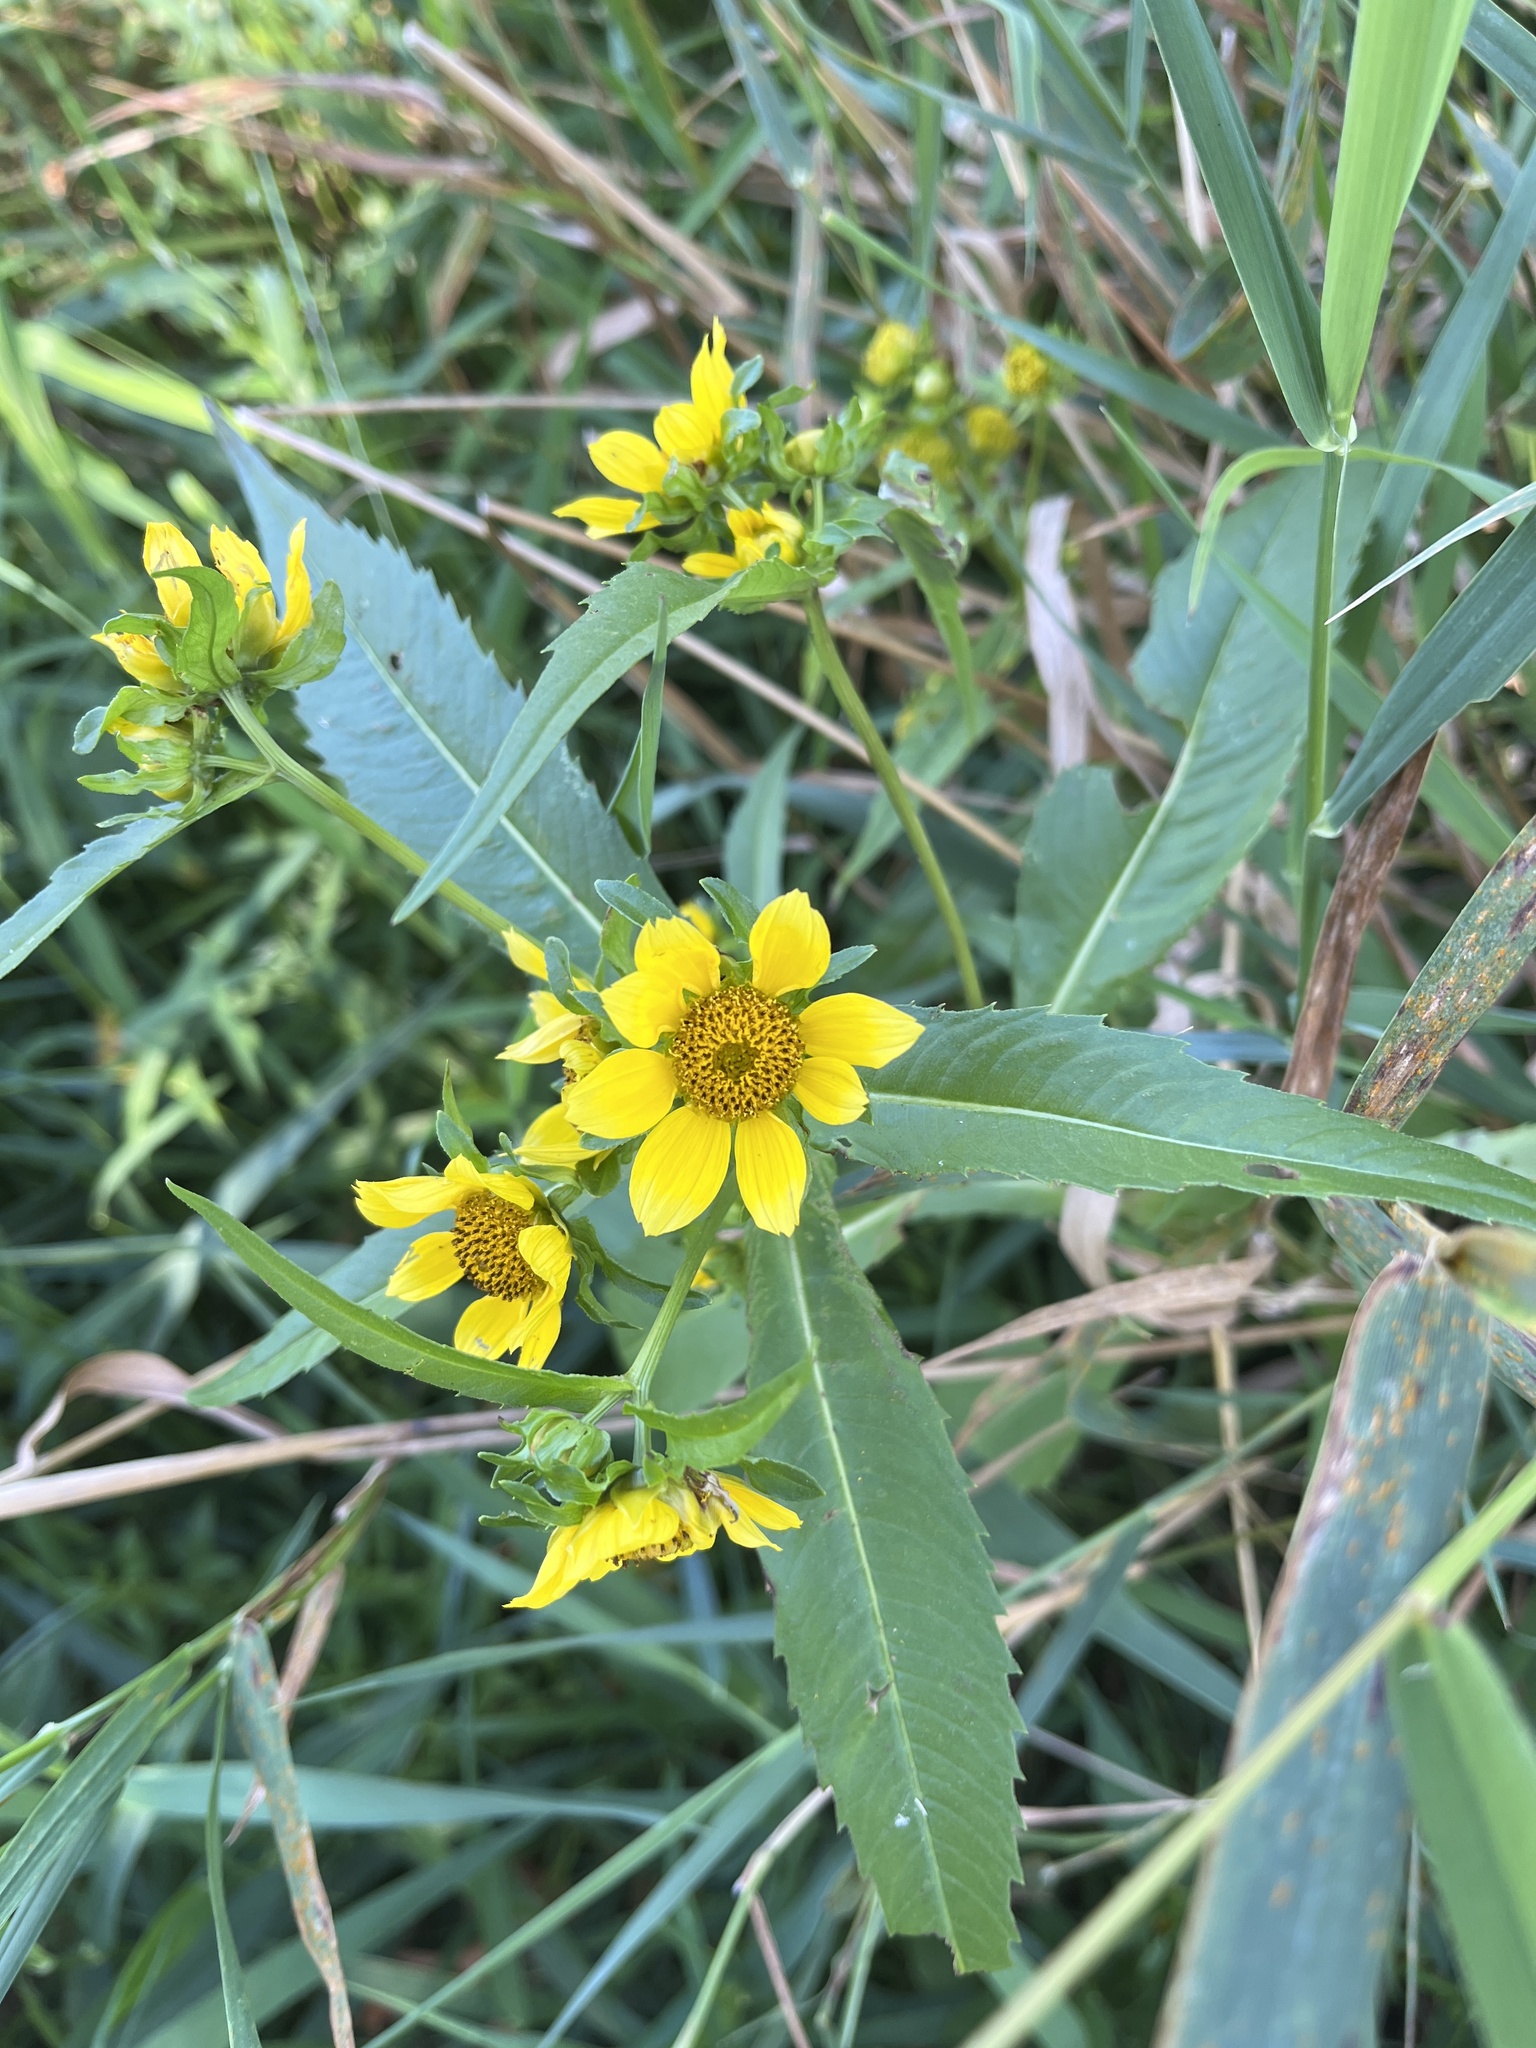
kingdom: Plantae
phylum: Tracheophyta
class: Magnoliopsida
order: Asterales
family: Asteraceae
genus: Bidens
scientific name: Bidens cernua
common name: Nodding bur-marigold
